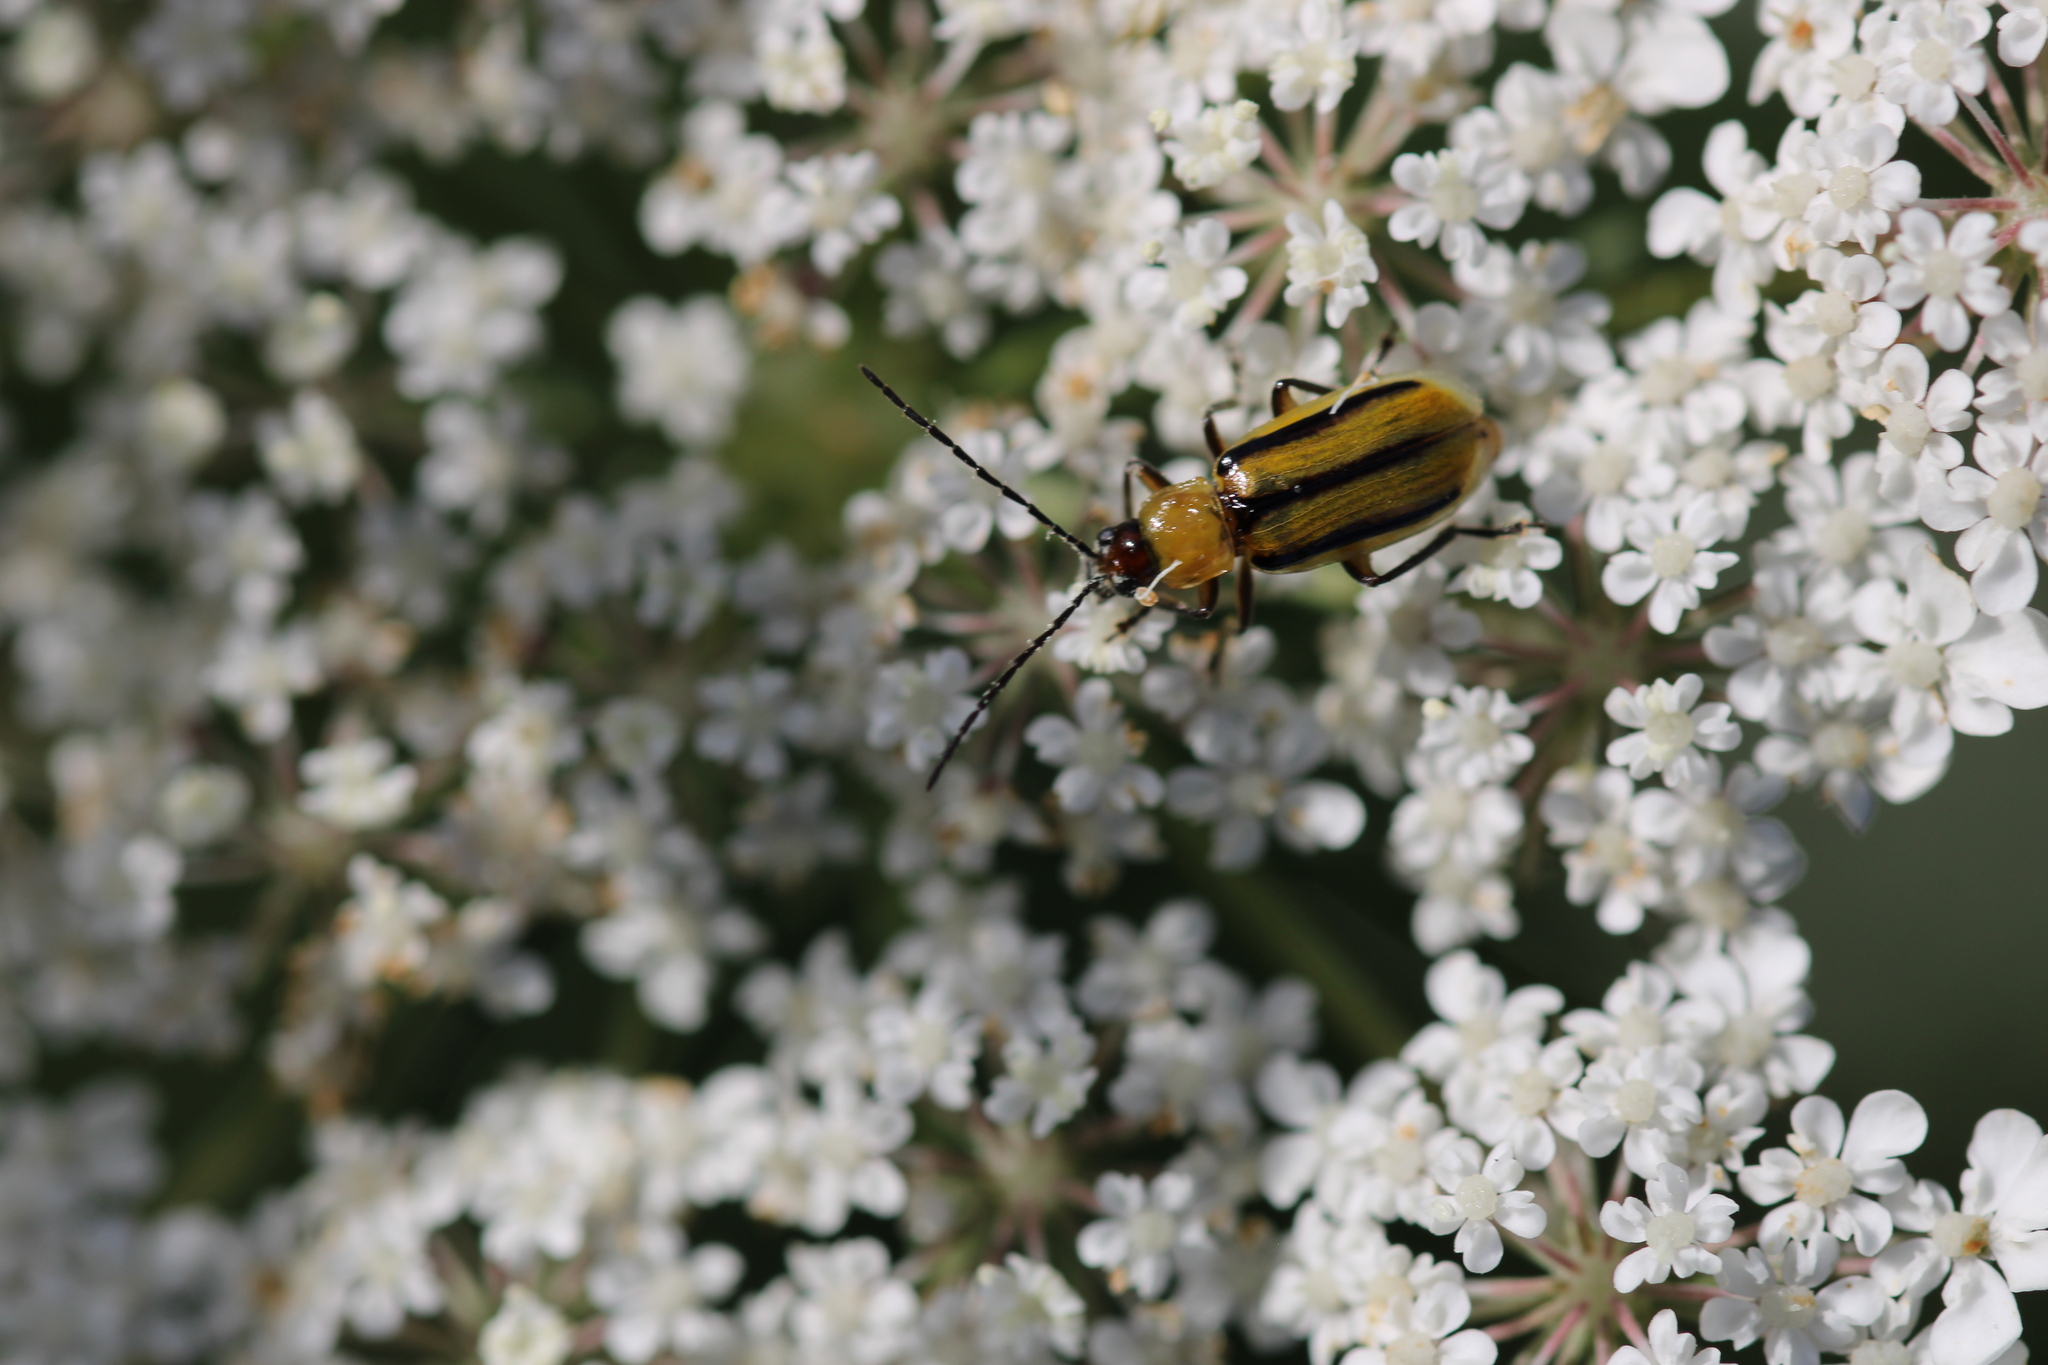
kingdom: Animalia
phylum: Arthropoda
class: Insecta
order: Coleoptera
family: Chrysomelidae
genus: Diabrotica
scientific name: Diabrotica virgifera
